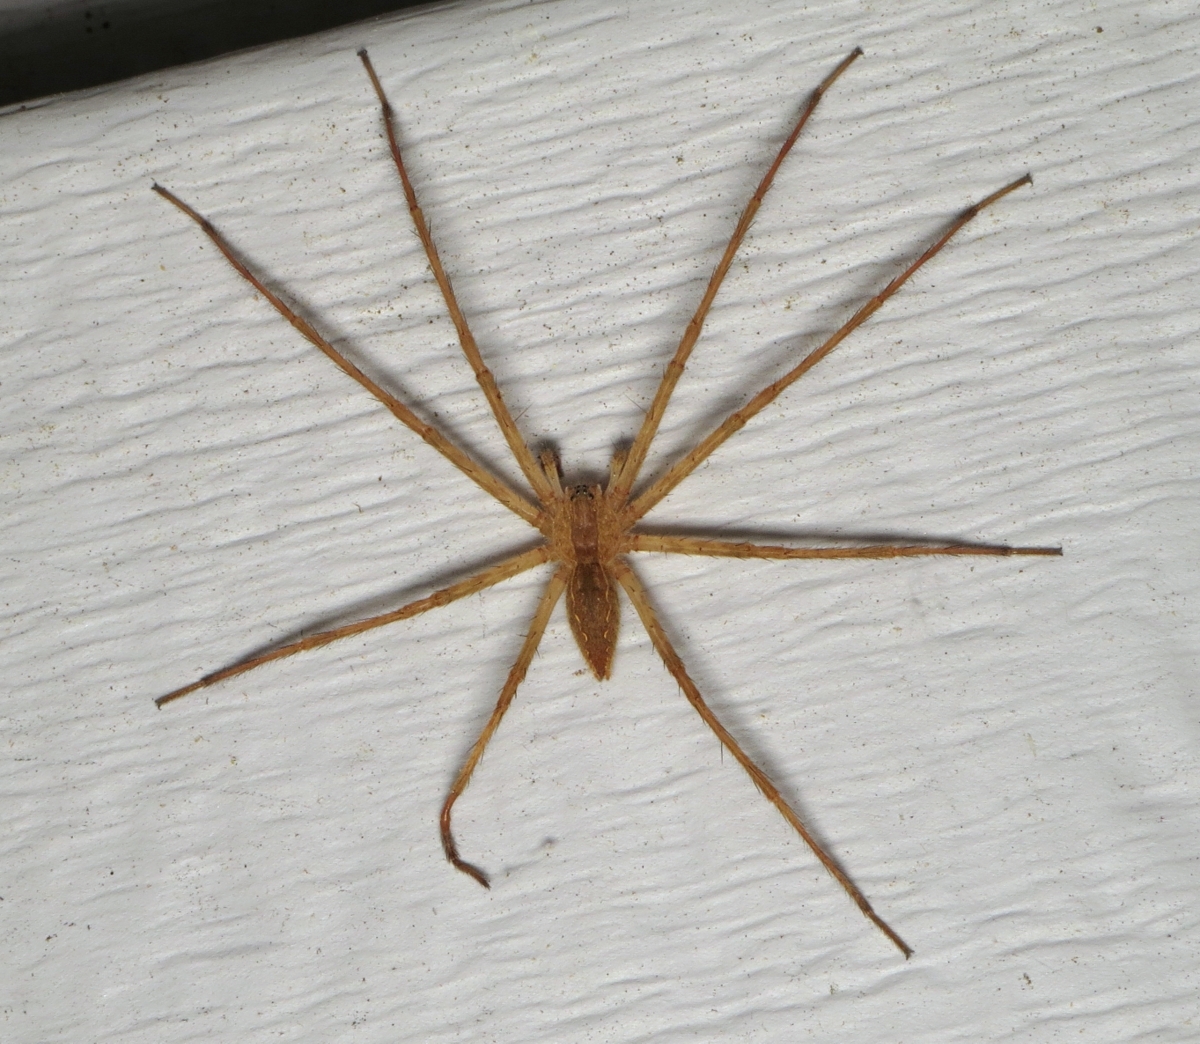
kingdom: Animalia
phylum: Arthropoda
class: Arachnida
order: Araneae
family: Pisauridae
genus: Pisaurina
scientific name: Pisaurina mira
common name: American nursery web spider
